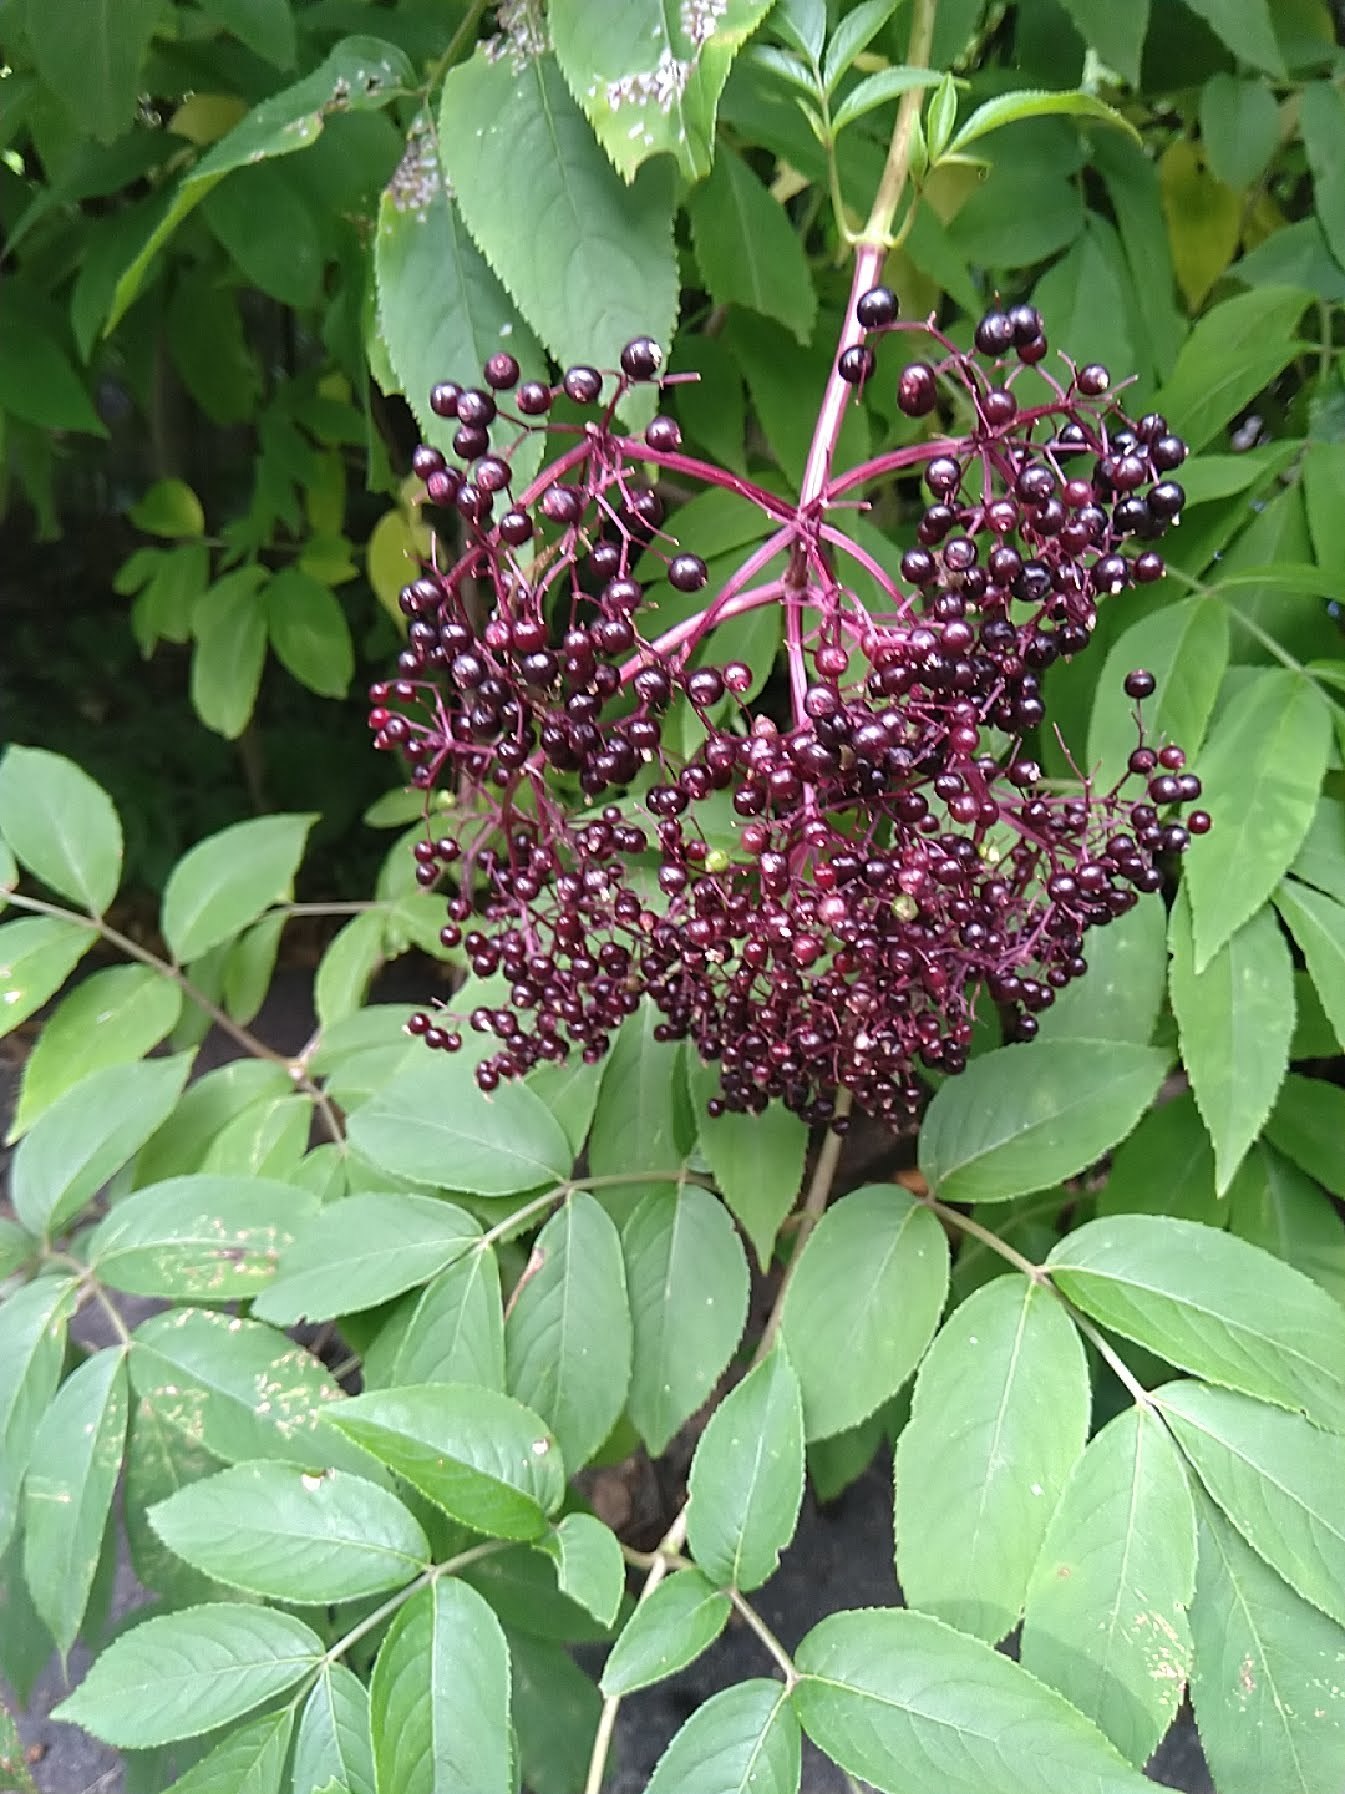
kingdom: Plantae
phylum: Tracheophyta
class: Magnoliopsida
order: Dipsacales
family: Viburnaceae
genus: Sambucus
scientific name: Sambucus canadensis
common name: American elder
